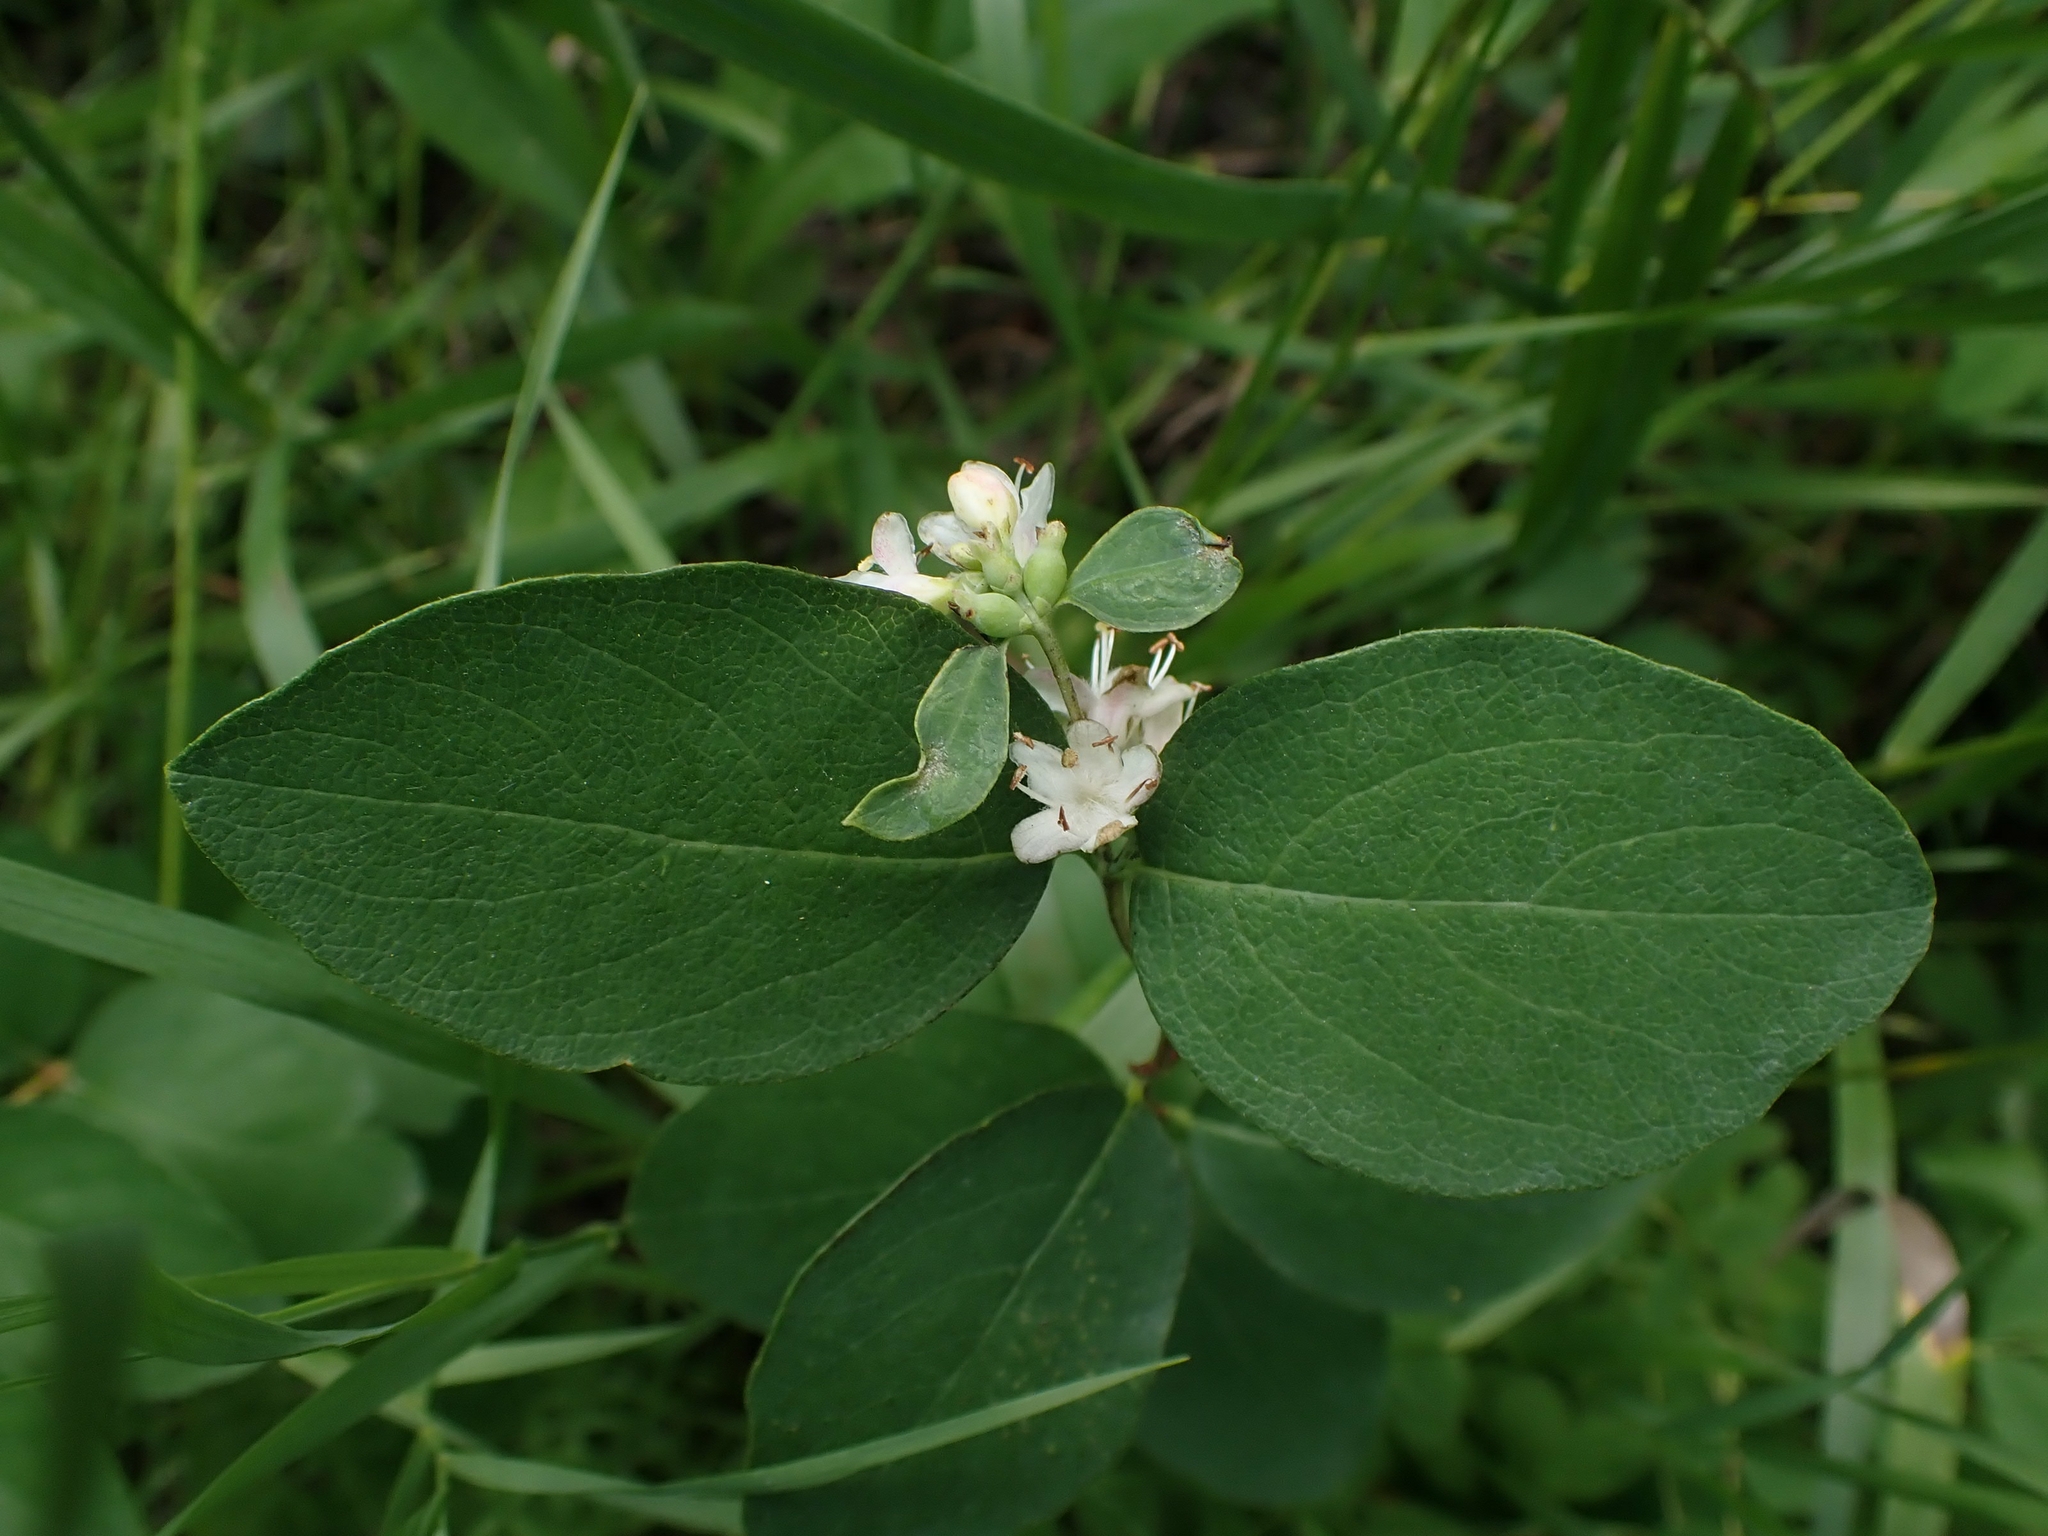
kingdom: Plantae
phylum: Tracheophyta
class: Magnoliopsida
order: Dipsacales
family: Caprifoliaceae
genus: Symphoricarpos
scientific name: Symphoricarpos occidentalis
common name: Wolfberry
